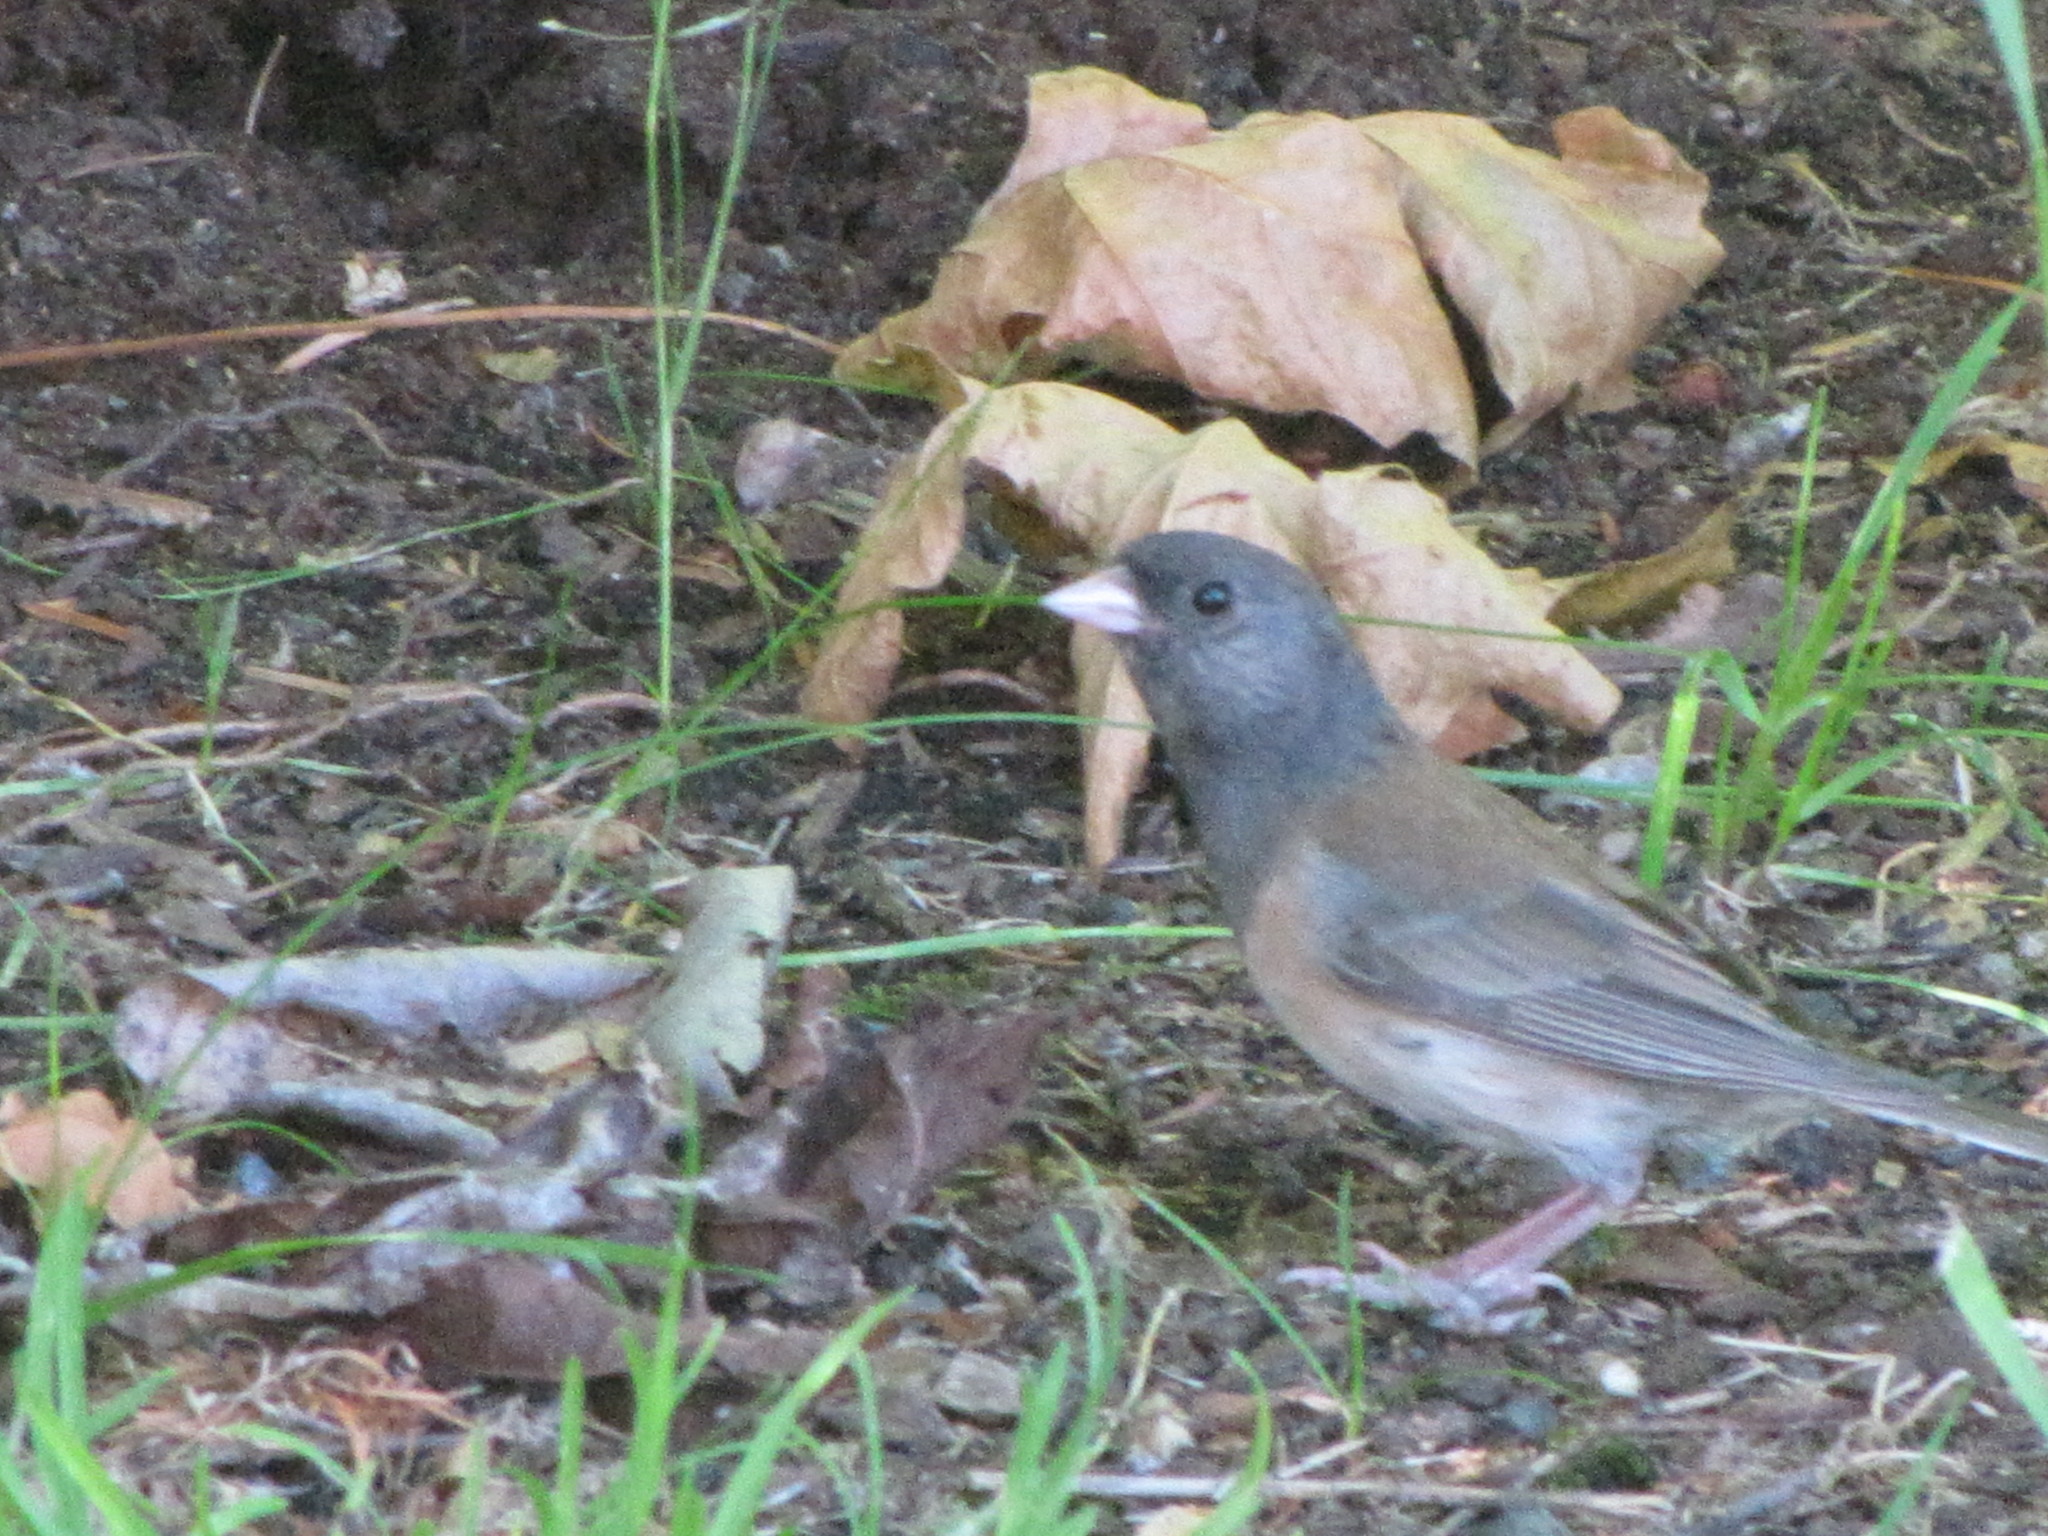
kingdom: Animalia
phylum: Chordata
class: Aves
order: Passeriformes
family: Passerellidae
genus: Junco
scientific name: Junco hyemalis
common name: Dark-eyed junco
